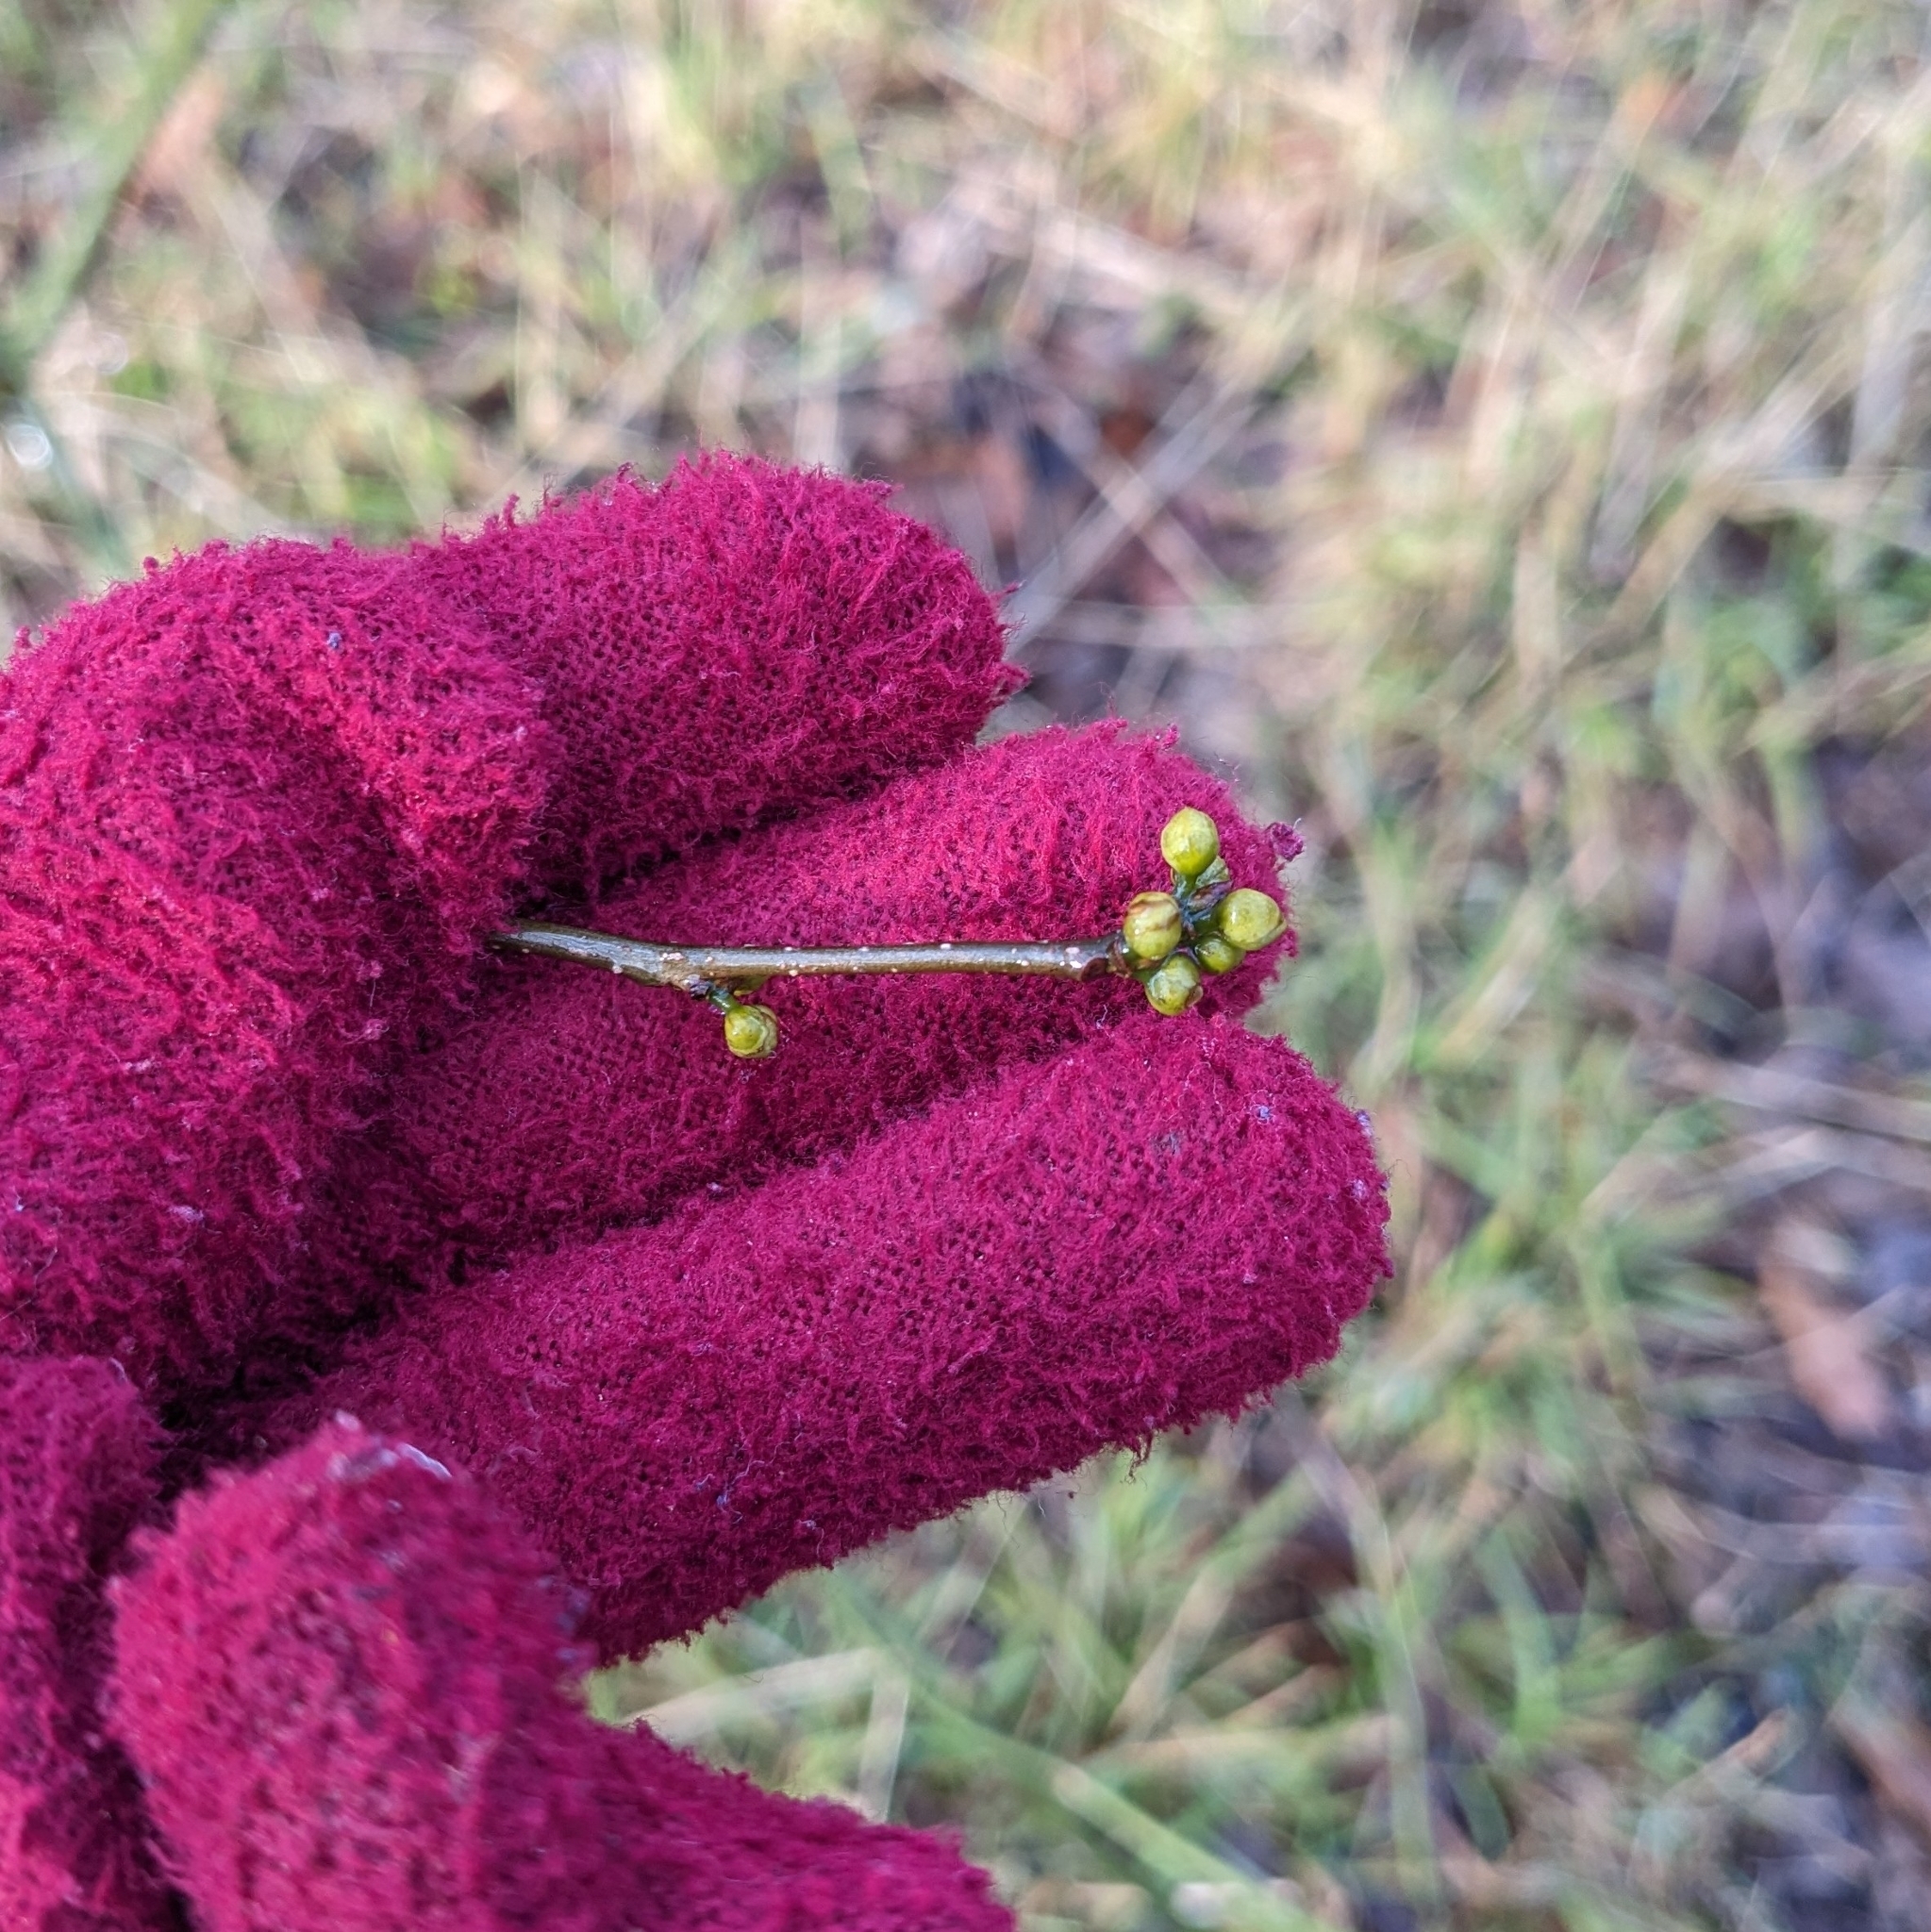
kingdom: Plantae
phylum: Tracheophyta
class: Magnoliopsida
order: Laurales
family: Lauraceae
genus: Lindera
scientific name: Lindera benzoin
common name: Spicebush
